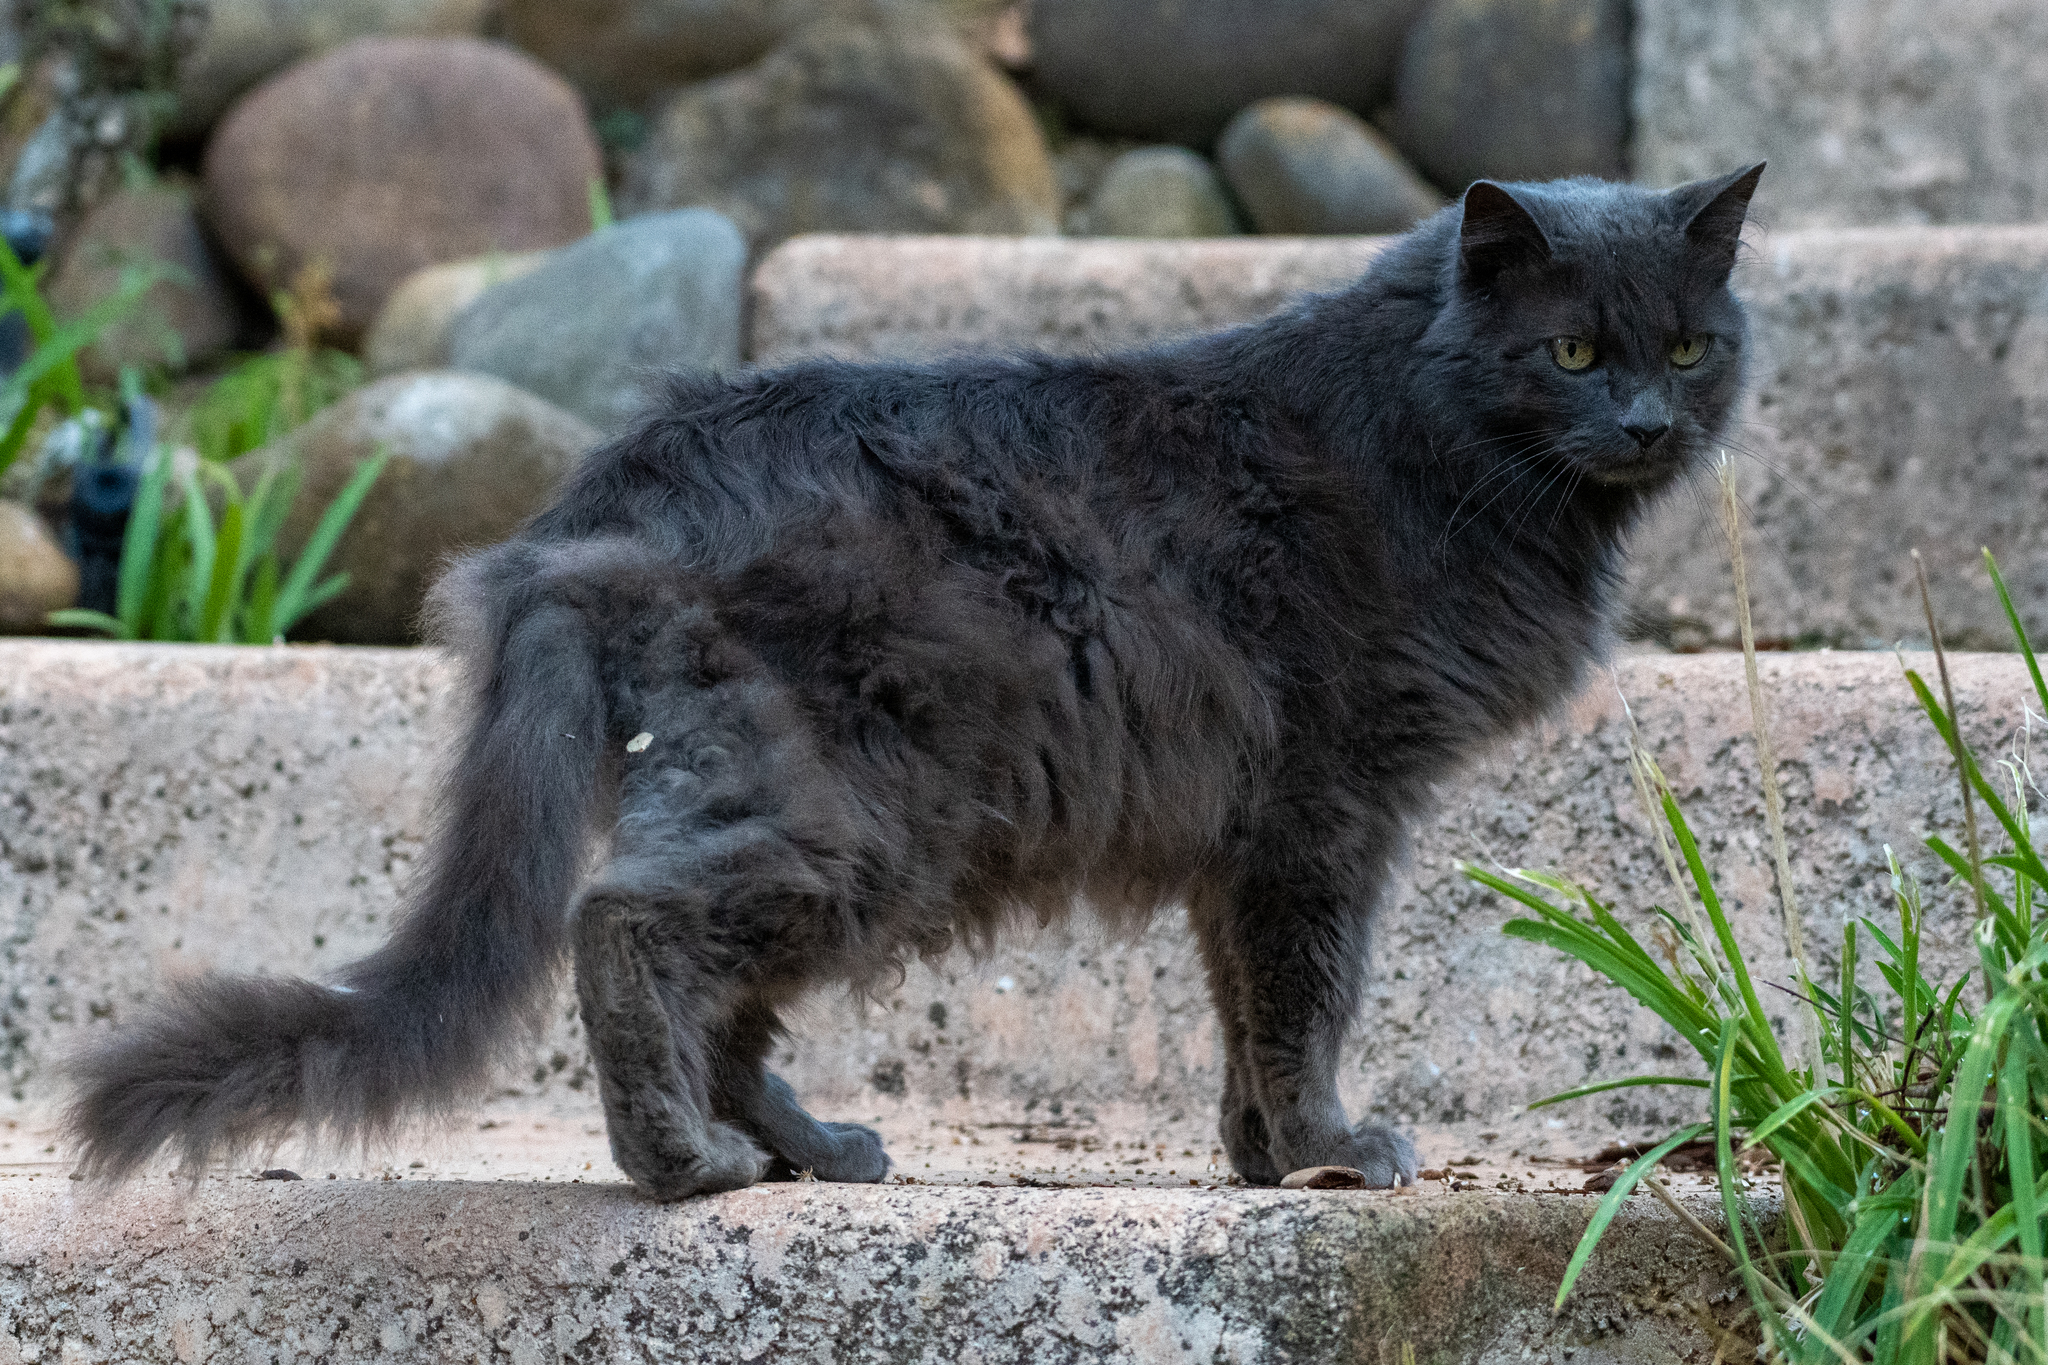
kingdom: Animalia
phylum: Chordata
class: Mammalia
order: Carnivora
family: Felidae
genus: Felis
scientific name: Felis catus
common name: Domestic cat
